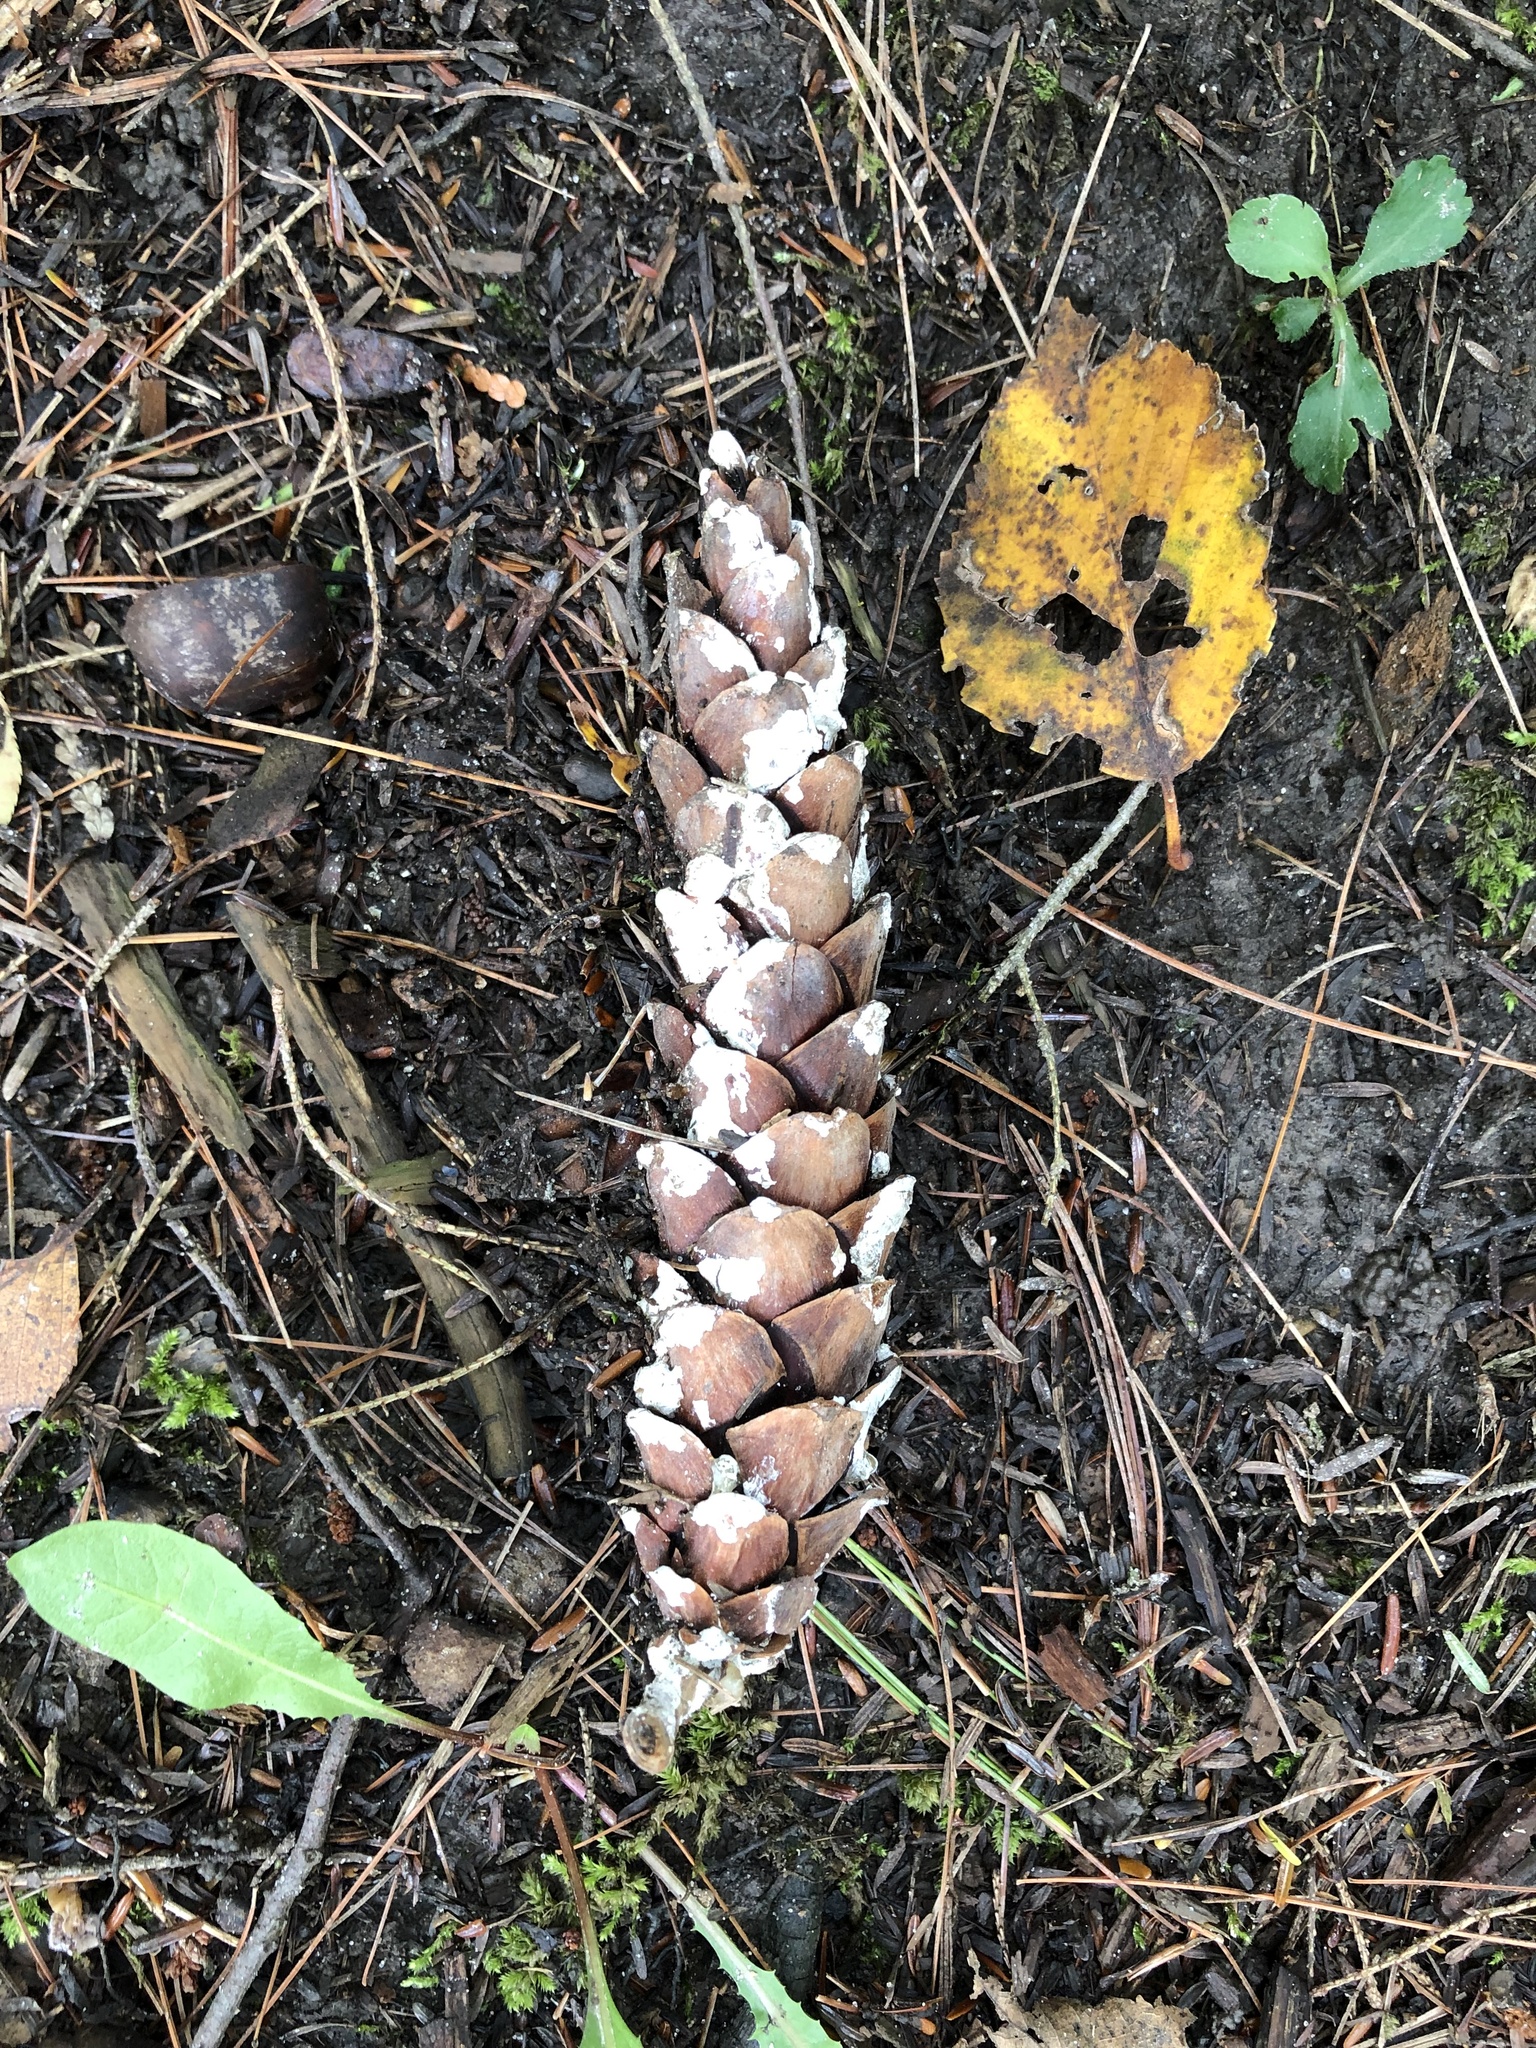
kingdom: Plantae
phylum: Tracheophyta
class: Pinopsida
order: Pinales
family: Pinaceae
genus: Pinus
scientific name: Pinus strobus
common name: Weymouth pine
